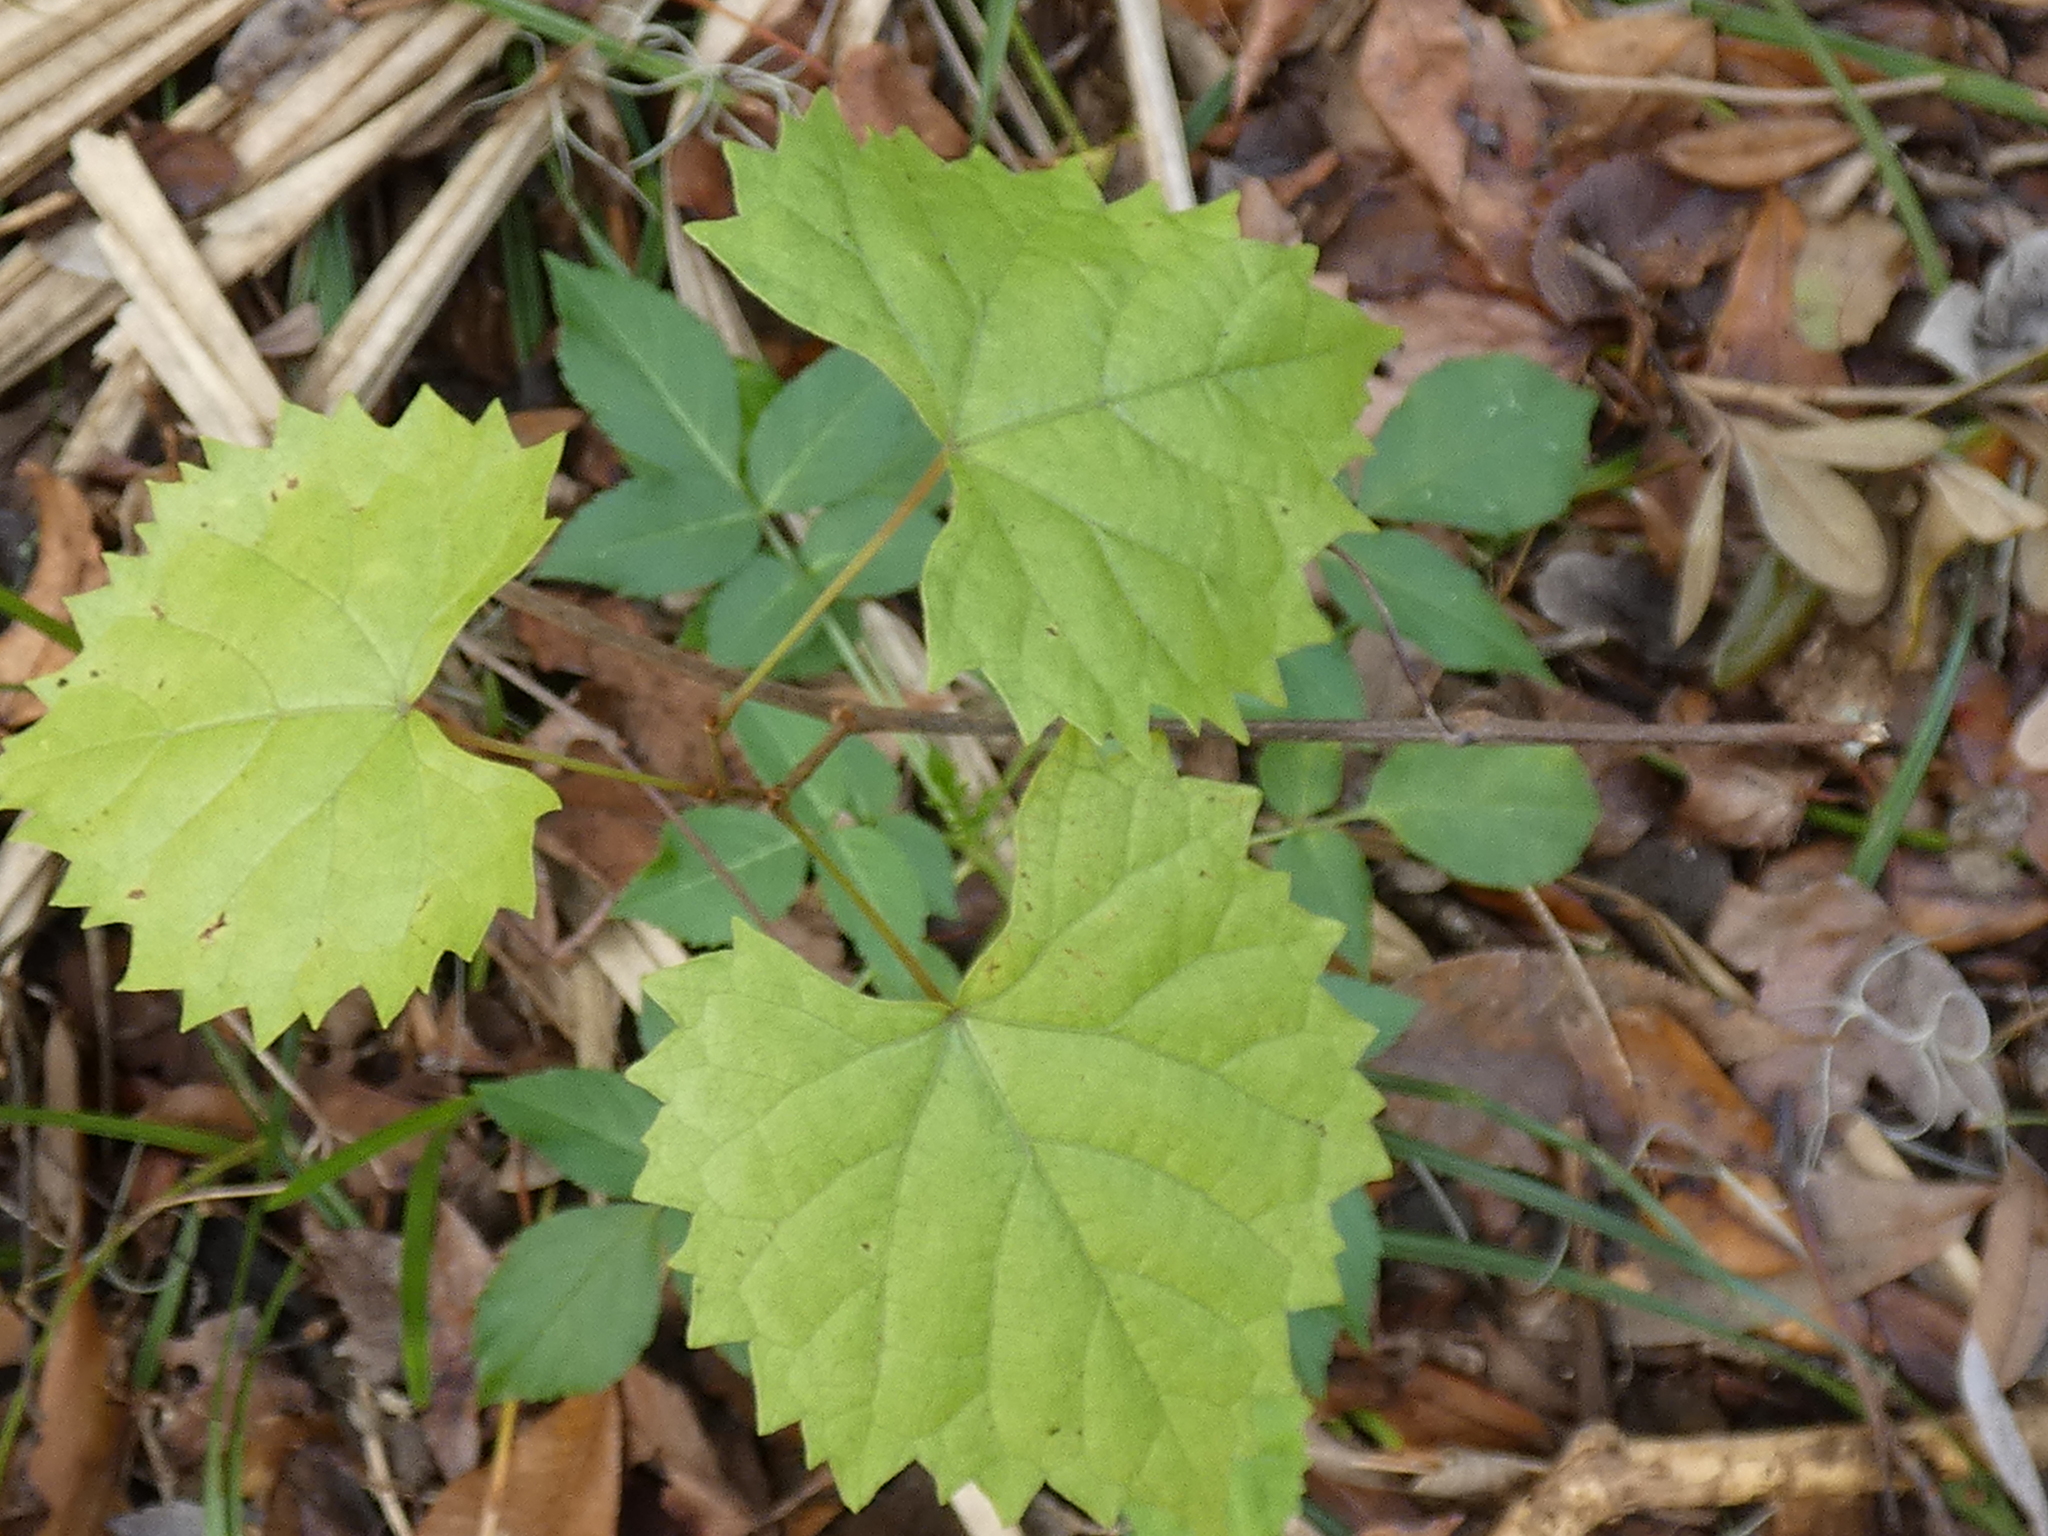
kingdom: Plantae
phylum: Tracheophyta
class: Magnoliopsida
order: Vitales
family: Vitaceae
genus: Vitis
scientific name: Vitis rotundifolia
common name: Muscadine grape
